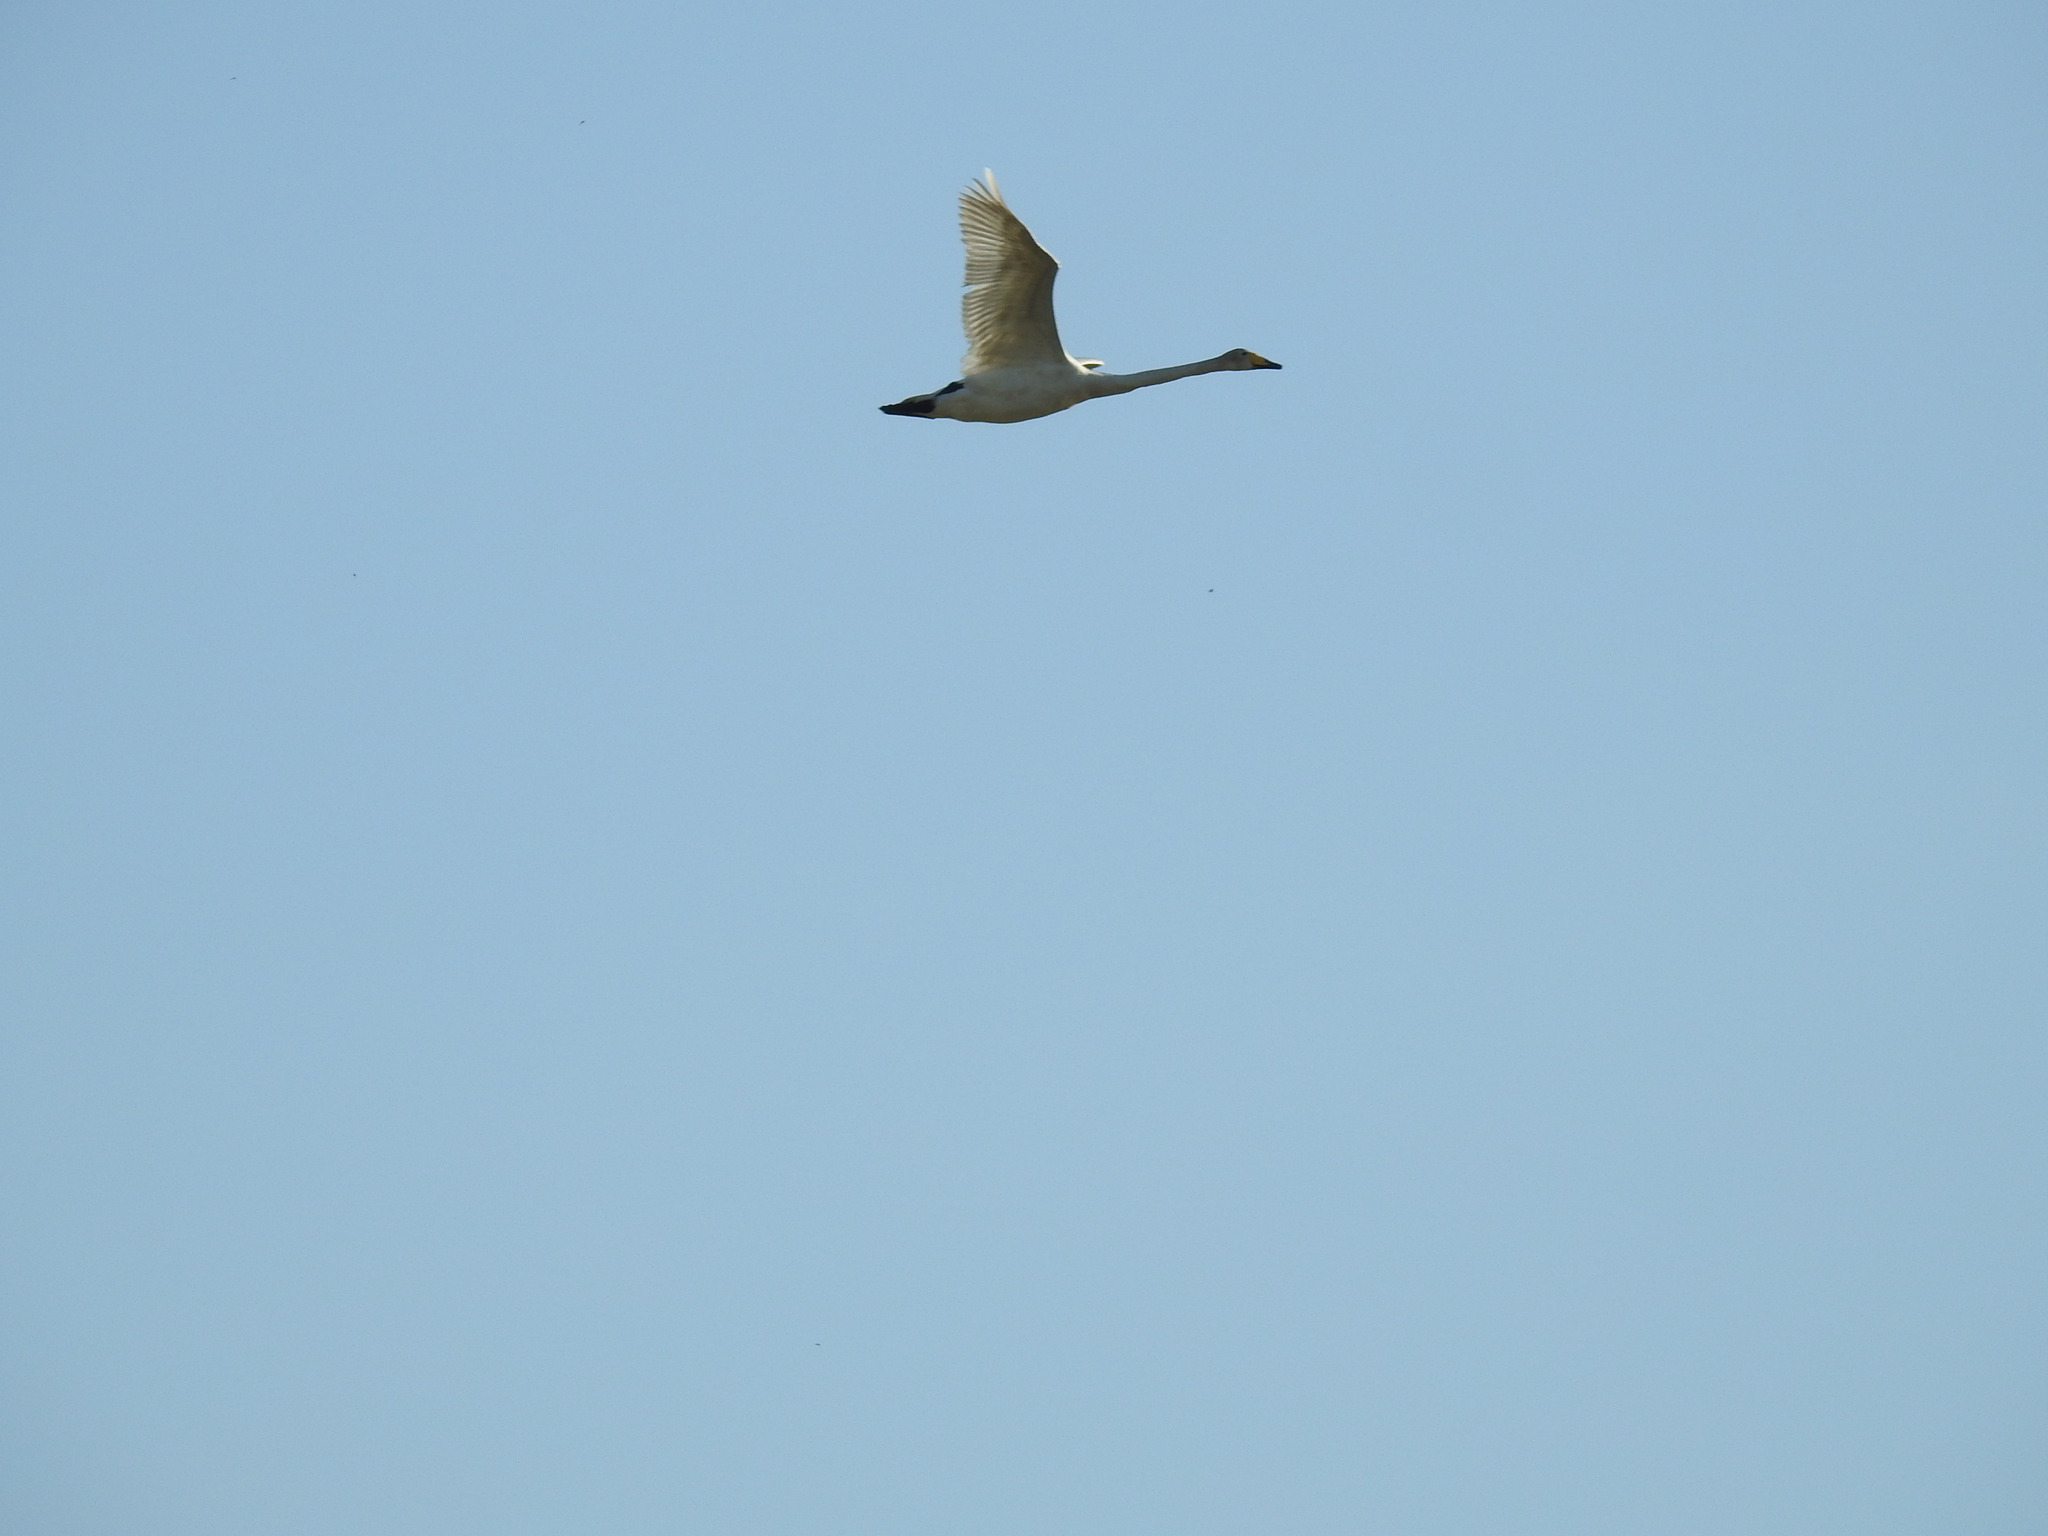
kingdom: Animalia
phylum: Chordata
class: Aves
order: Anseriformes
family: Anatidae
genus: Cygnus
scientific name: Cygnus cygnus
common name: Whooper swan
